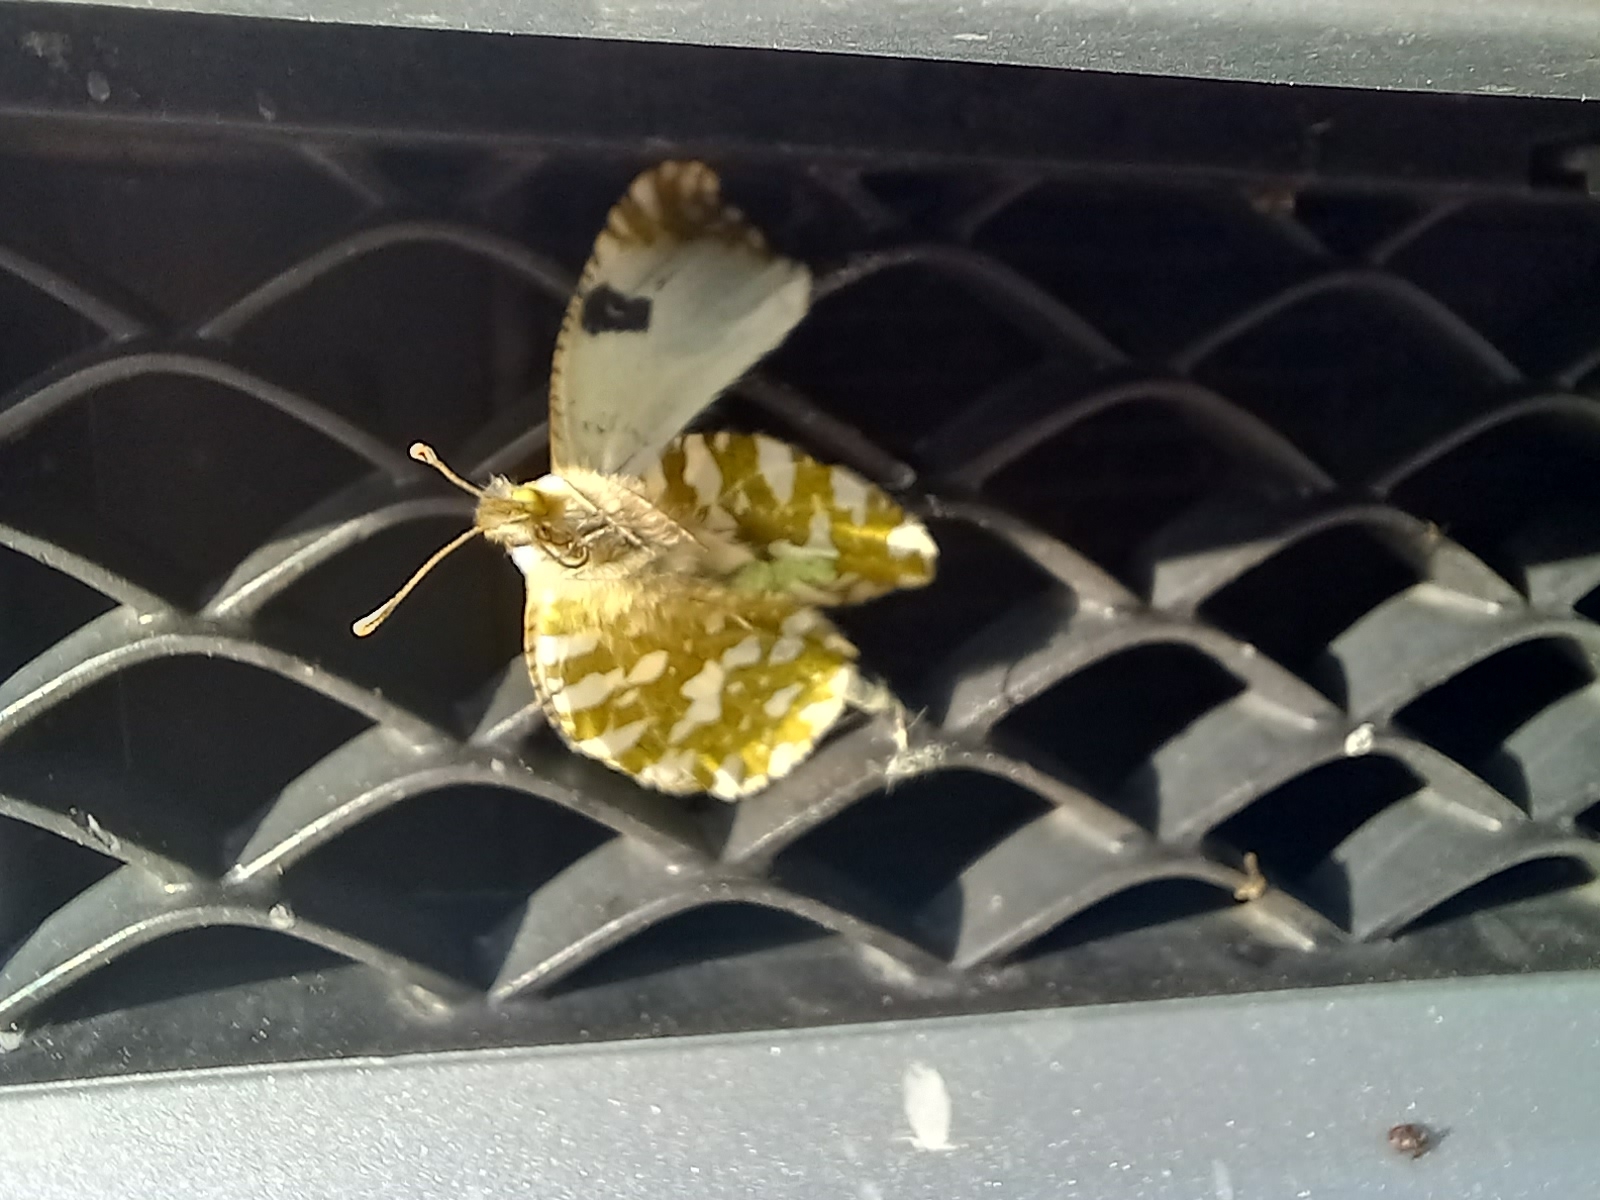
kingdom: Animalia
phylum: Arthropoda
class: Insecta
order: Lepidoptera
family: Pieridae
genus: Euchloe
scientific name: Euchloe crameri
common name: Western dappled white
